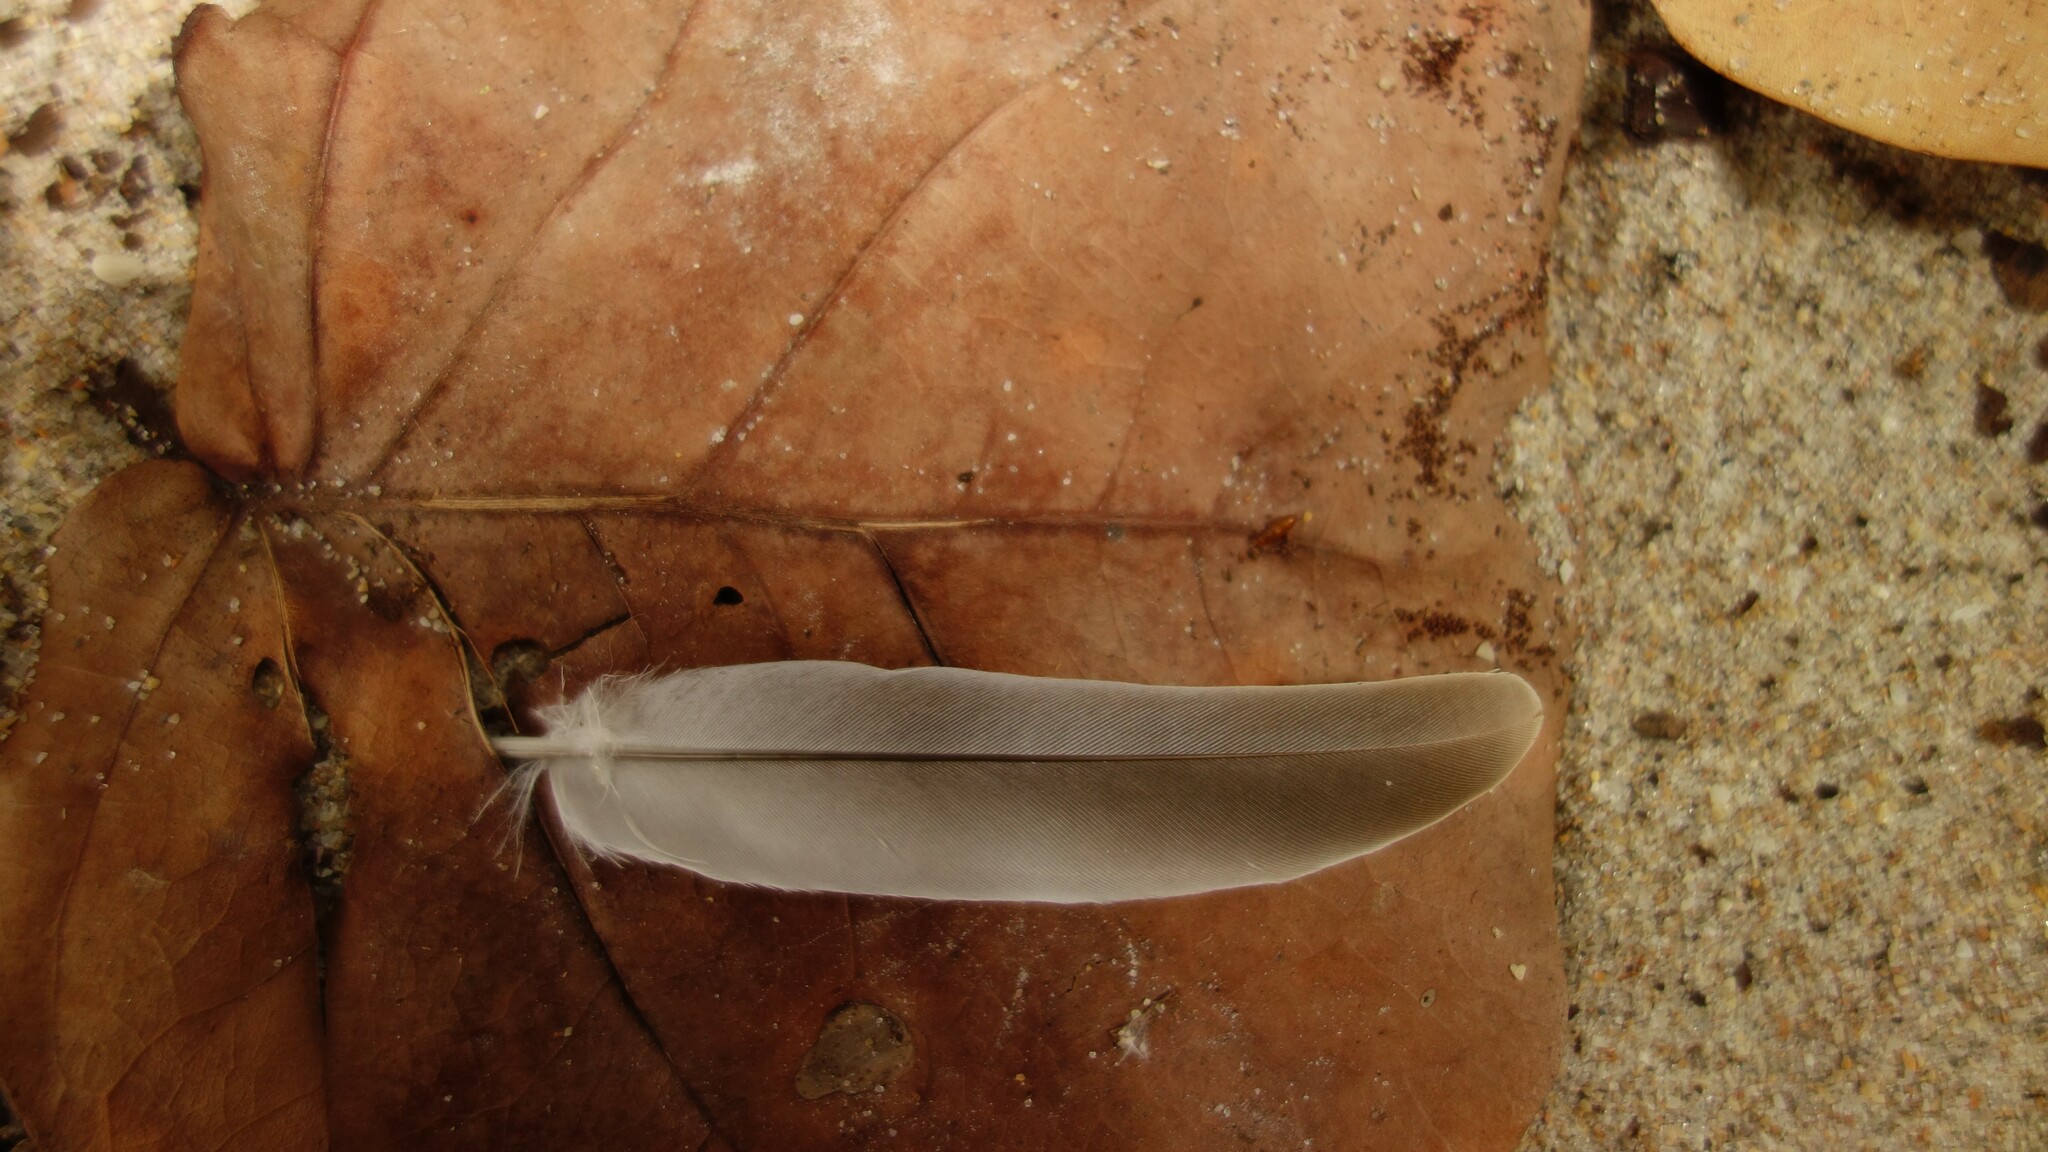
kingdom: Animalia
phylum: Chordata
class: Aves
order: Columbiformes
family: Columbidae
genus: Streptopelia
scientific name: Streptopelia decaocto
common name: Eurasian collared dove
